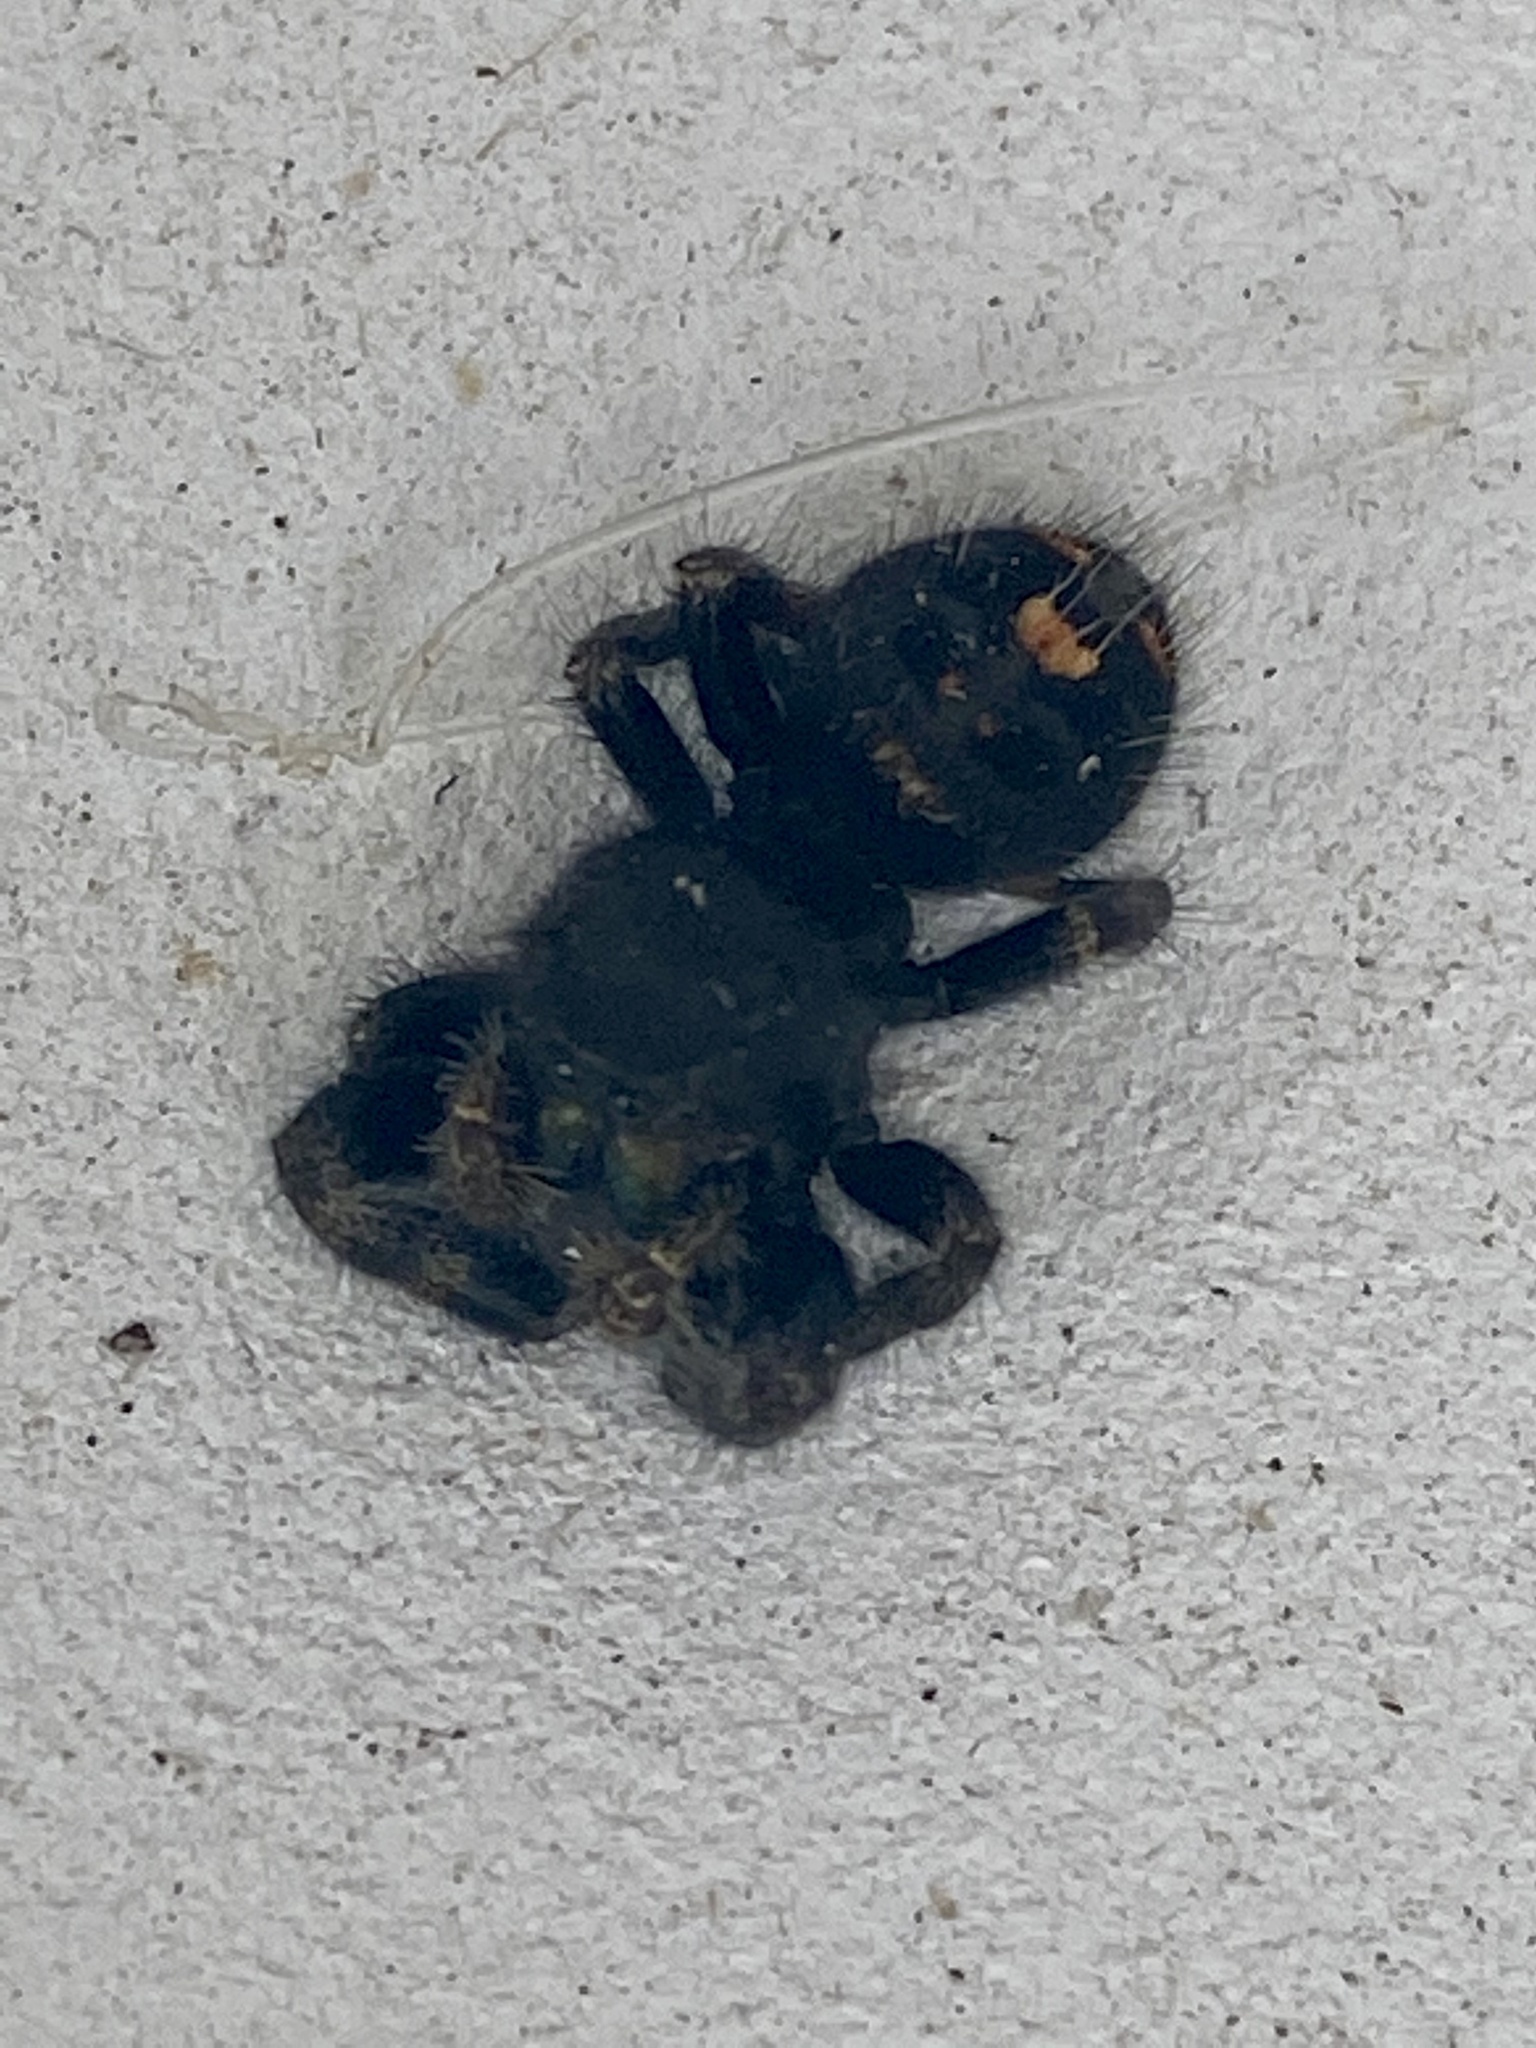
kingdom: Animalia
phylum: Arthropoda
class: Arachnida
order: Araneae
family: Salticidae
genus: Phidippus
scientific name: Phidippus audax
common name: Bold jumper
